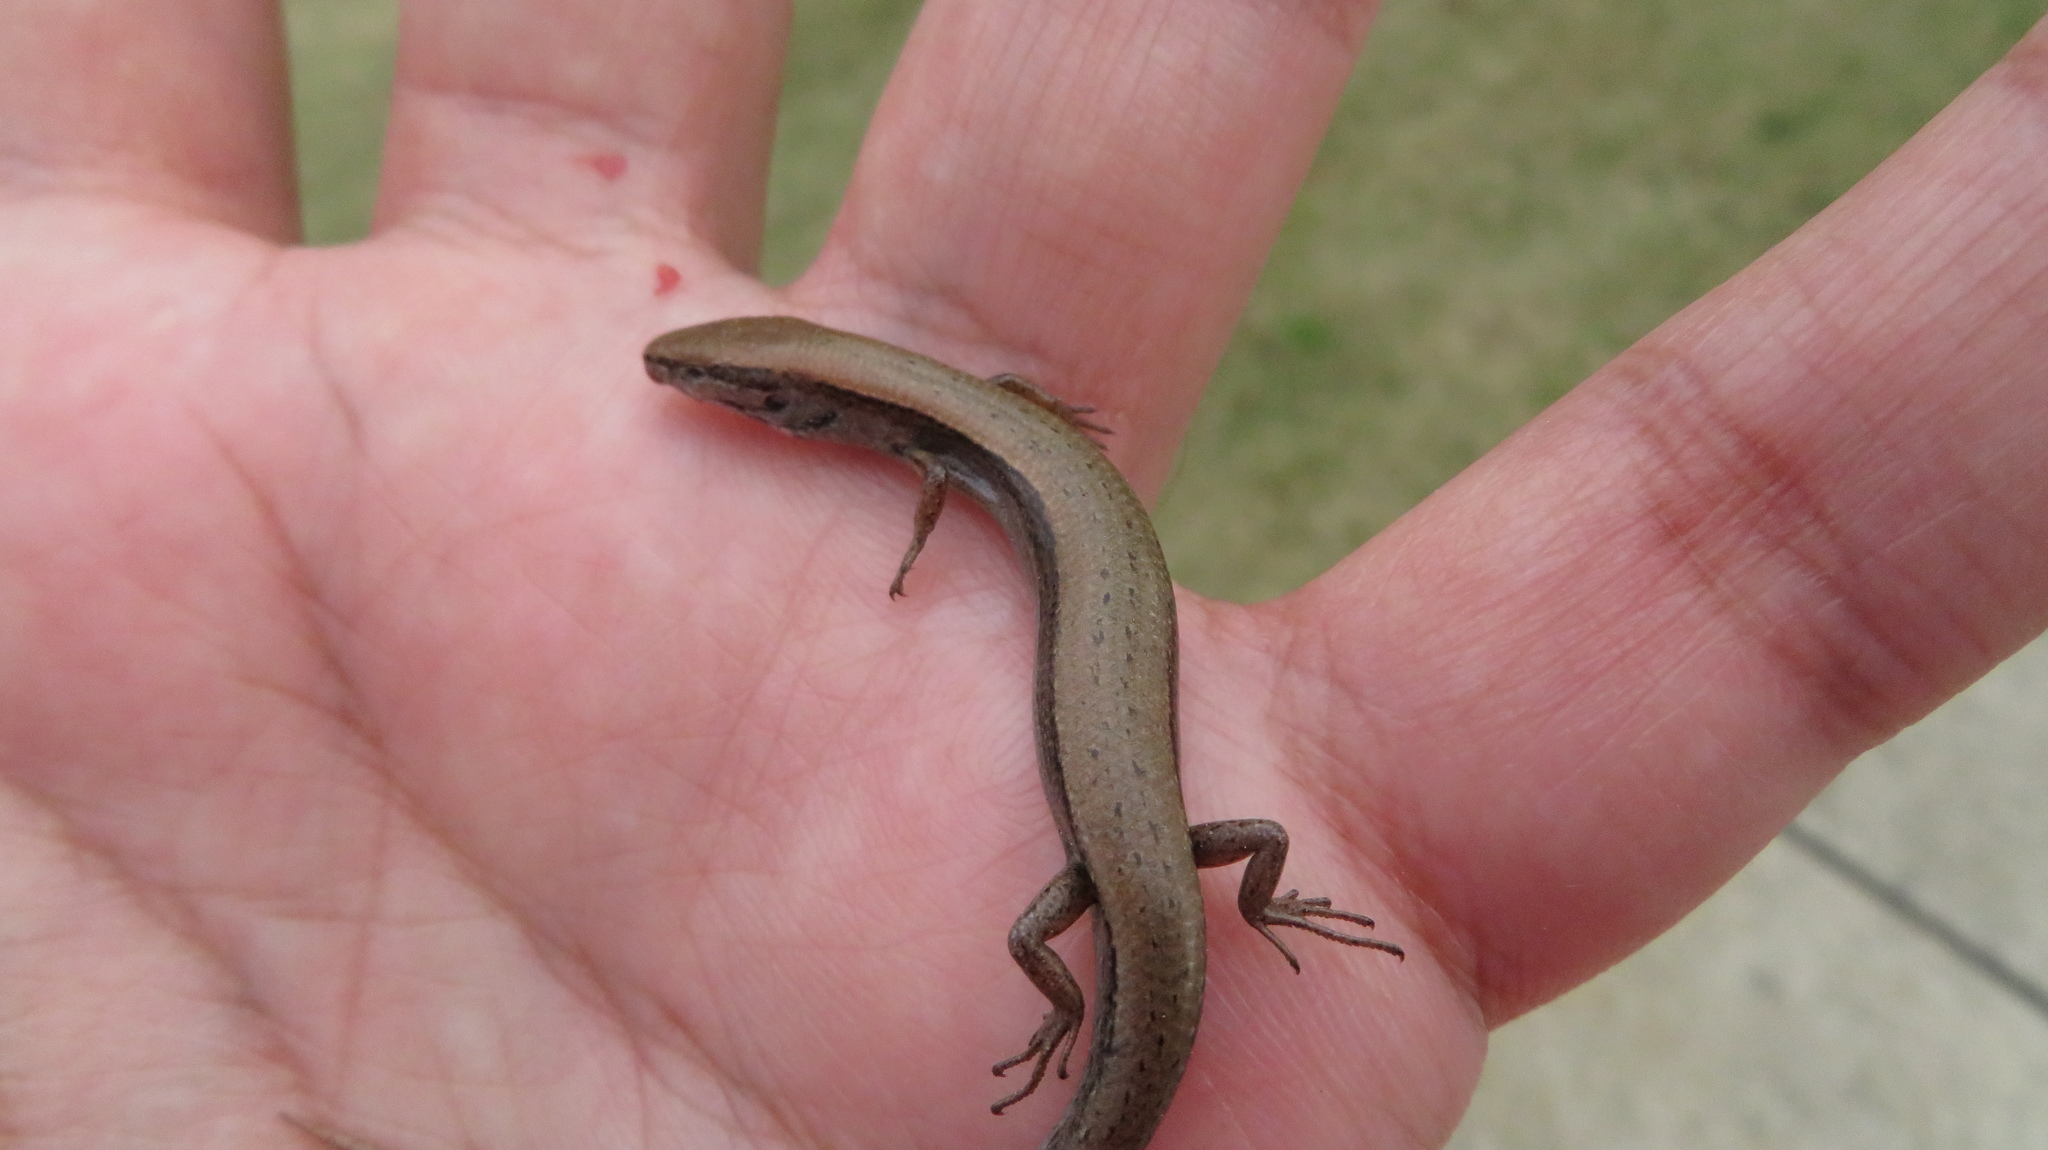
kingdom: Animalia
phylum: Chordata
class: Squamata
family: Scincidae
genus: Scincella
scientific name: Scincella lateralis
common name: Ground skink
